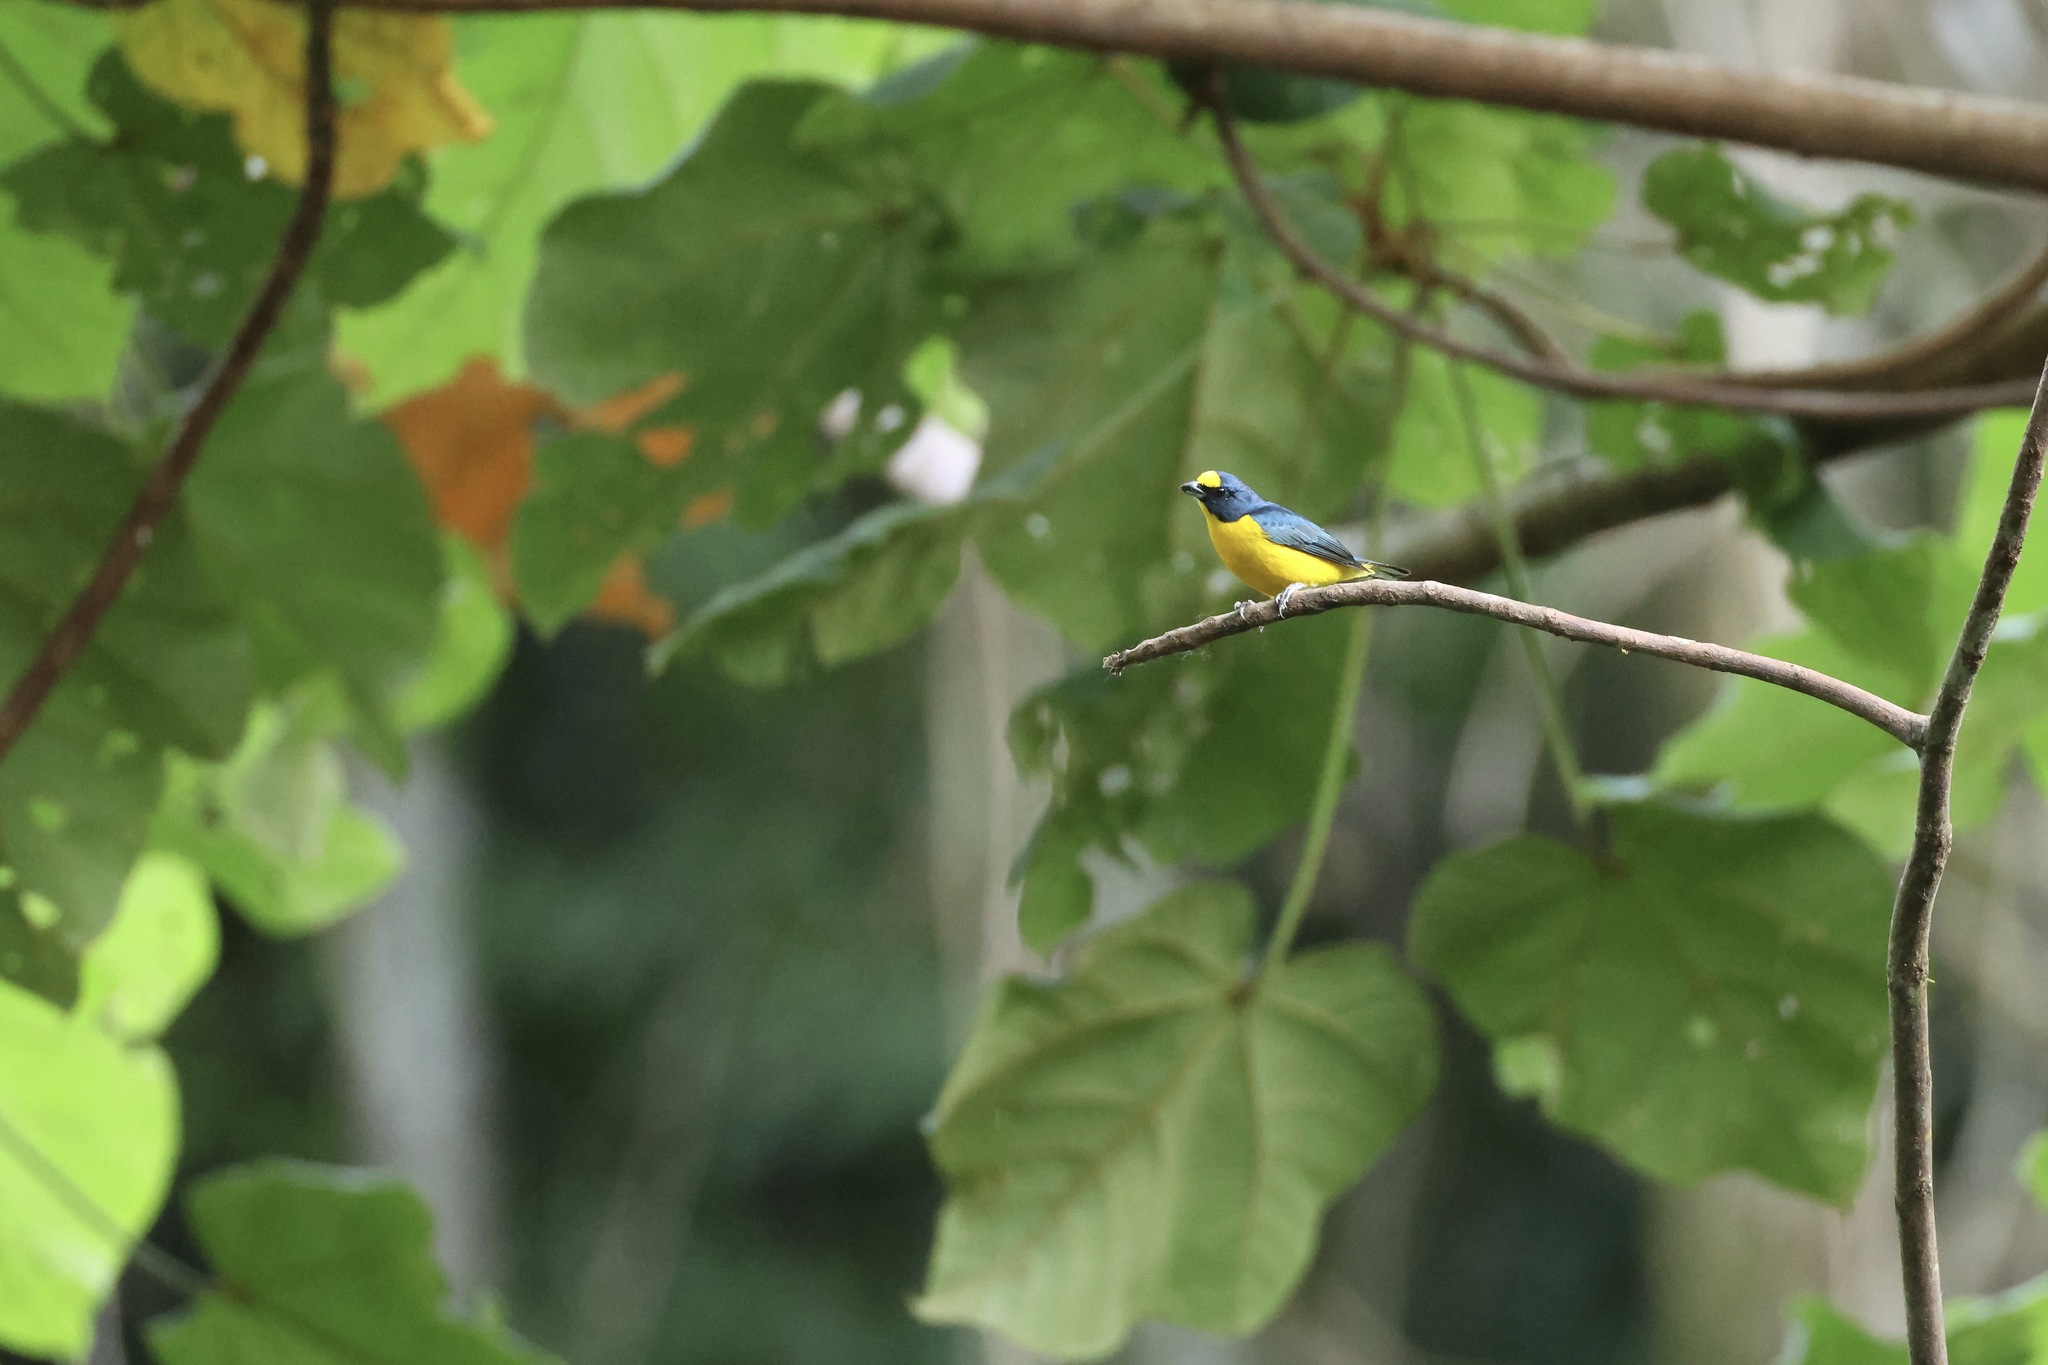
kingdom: Animalia
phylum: Chordata
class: Aves
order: Passeriformes
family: Fringillidae
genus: Euphonia
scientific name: Euphonia hirundinacea
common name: Yellow-throated euphonia
